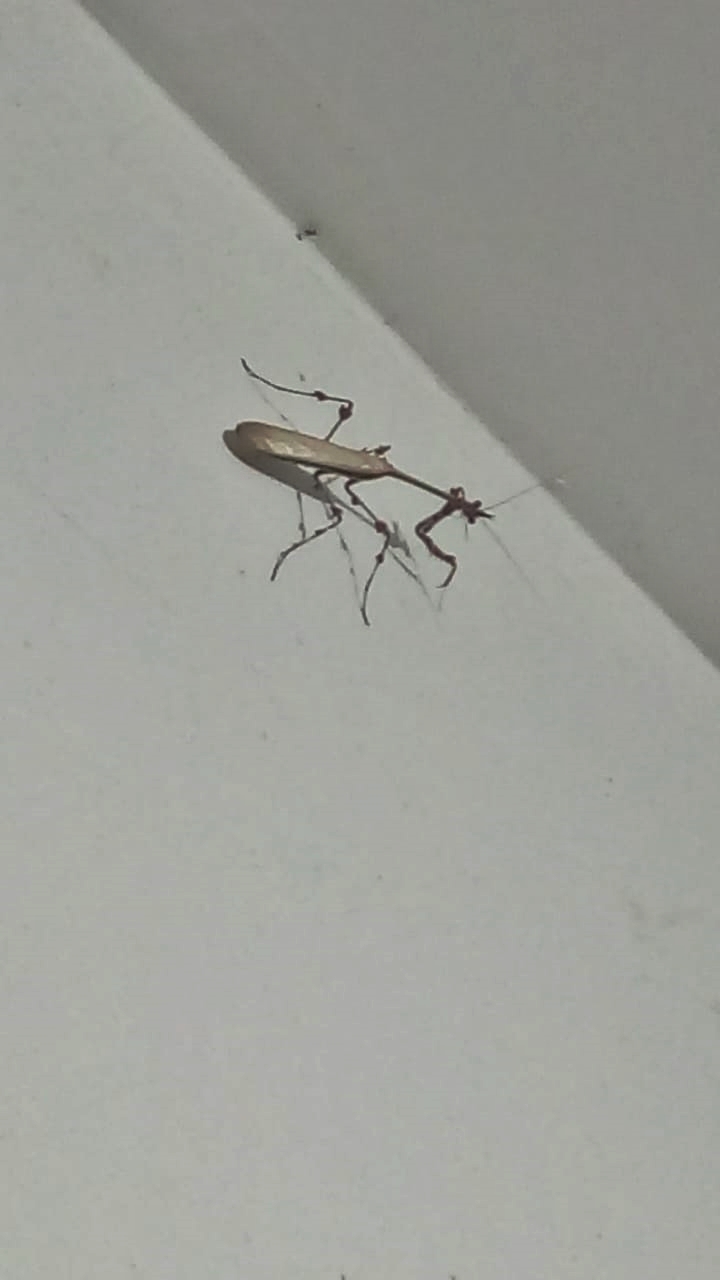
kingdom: Animalia
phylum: Arthropoda
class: Insecta
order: Mantodea
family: Mantidae
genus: Zoolea
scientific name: Zoolea
